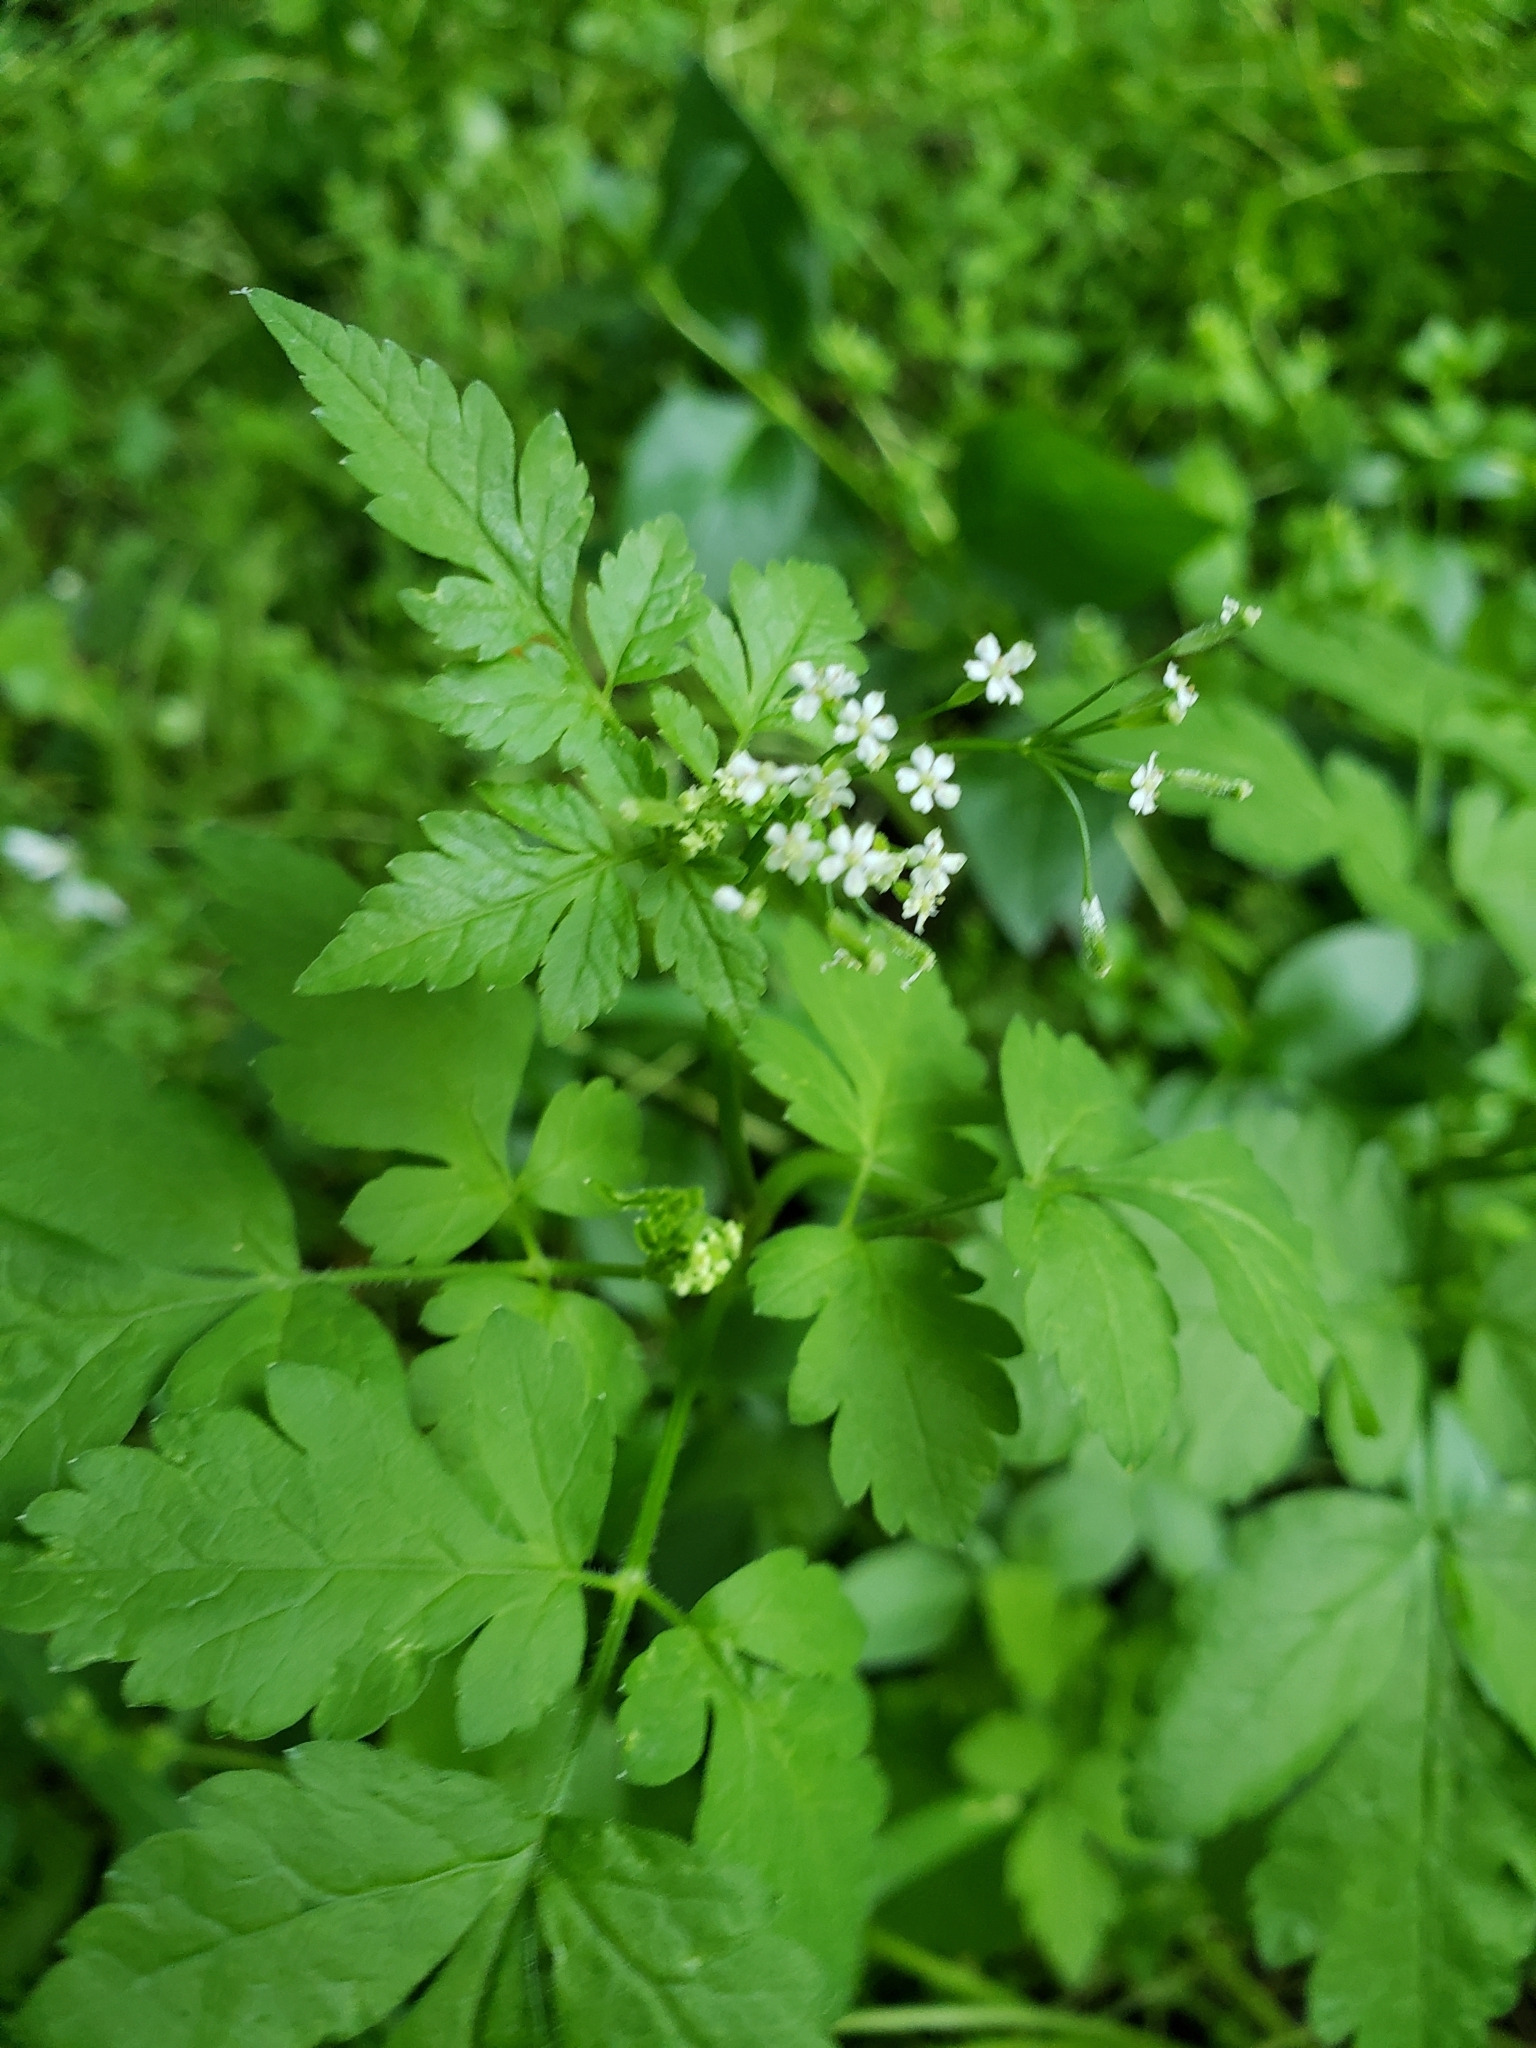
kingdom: Plantae
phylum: Tracheophyta
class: Magnoliopsida
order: Apiales
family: Apiaceae
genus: Osmorhiza
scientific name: Osmorhiza berteroi
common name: Mountain sweet cicely
